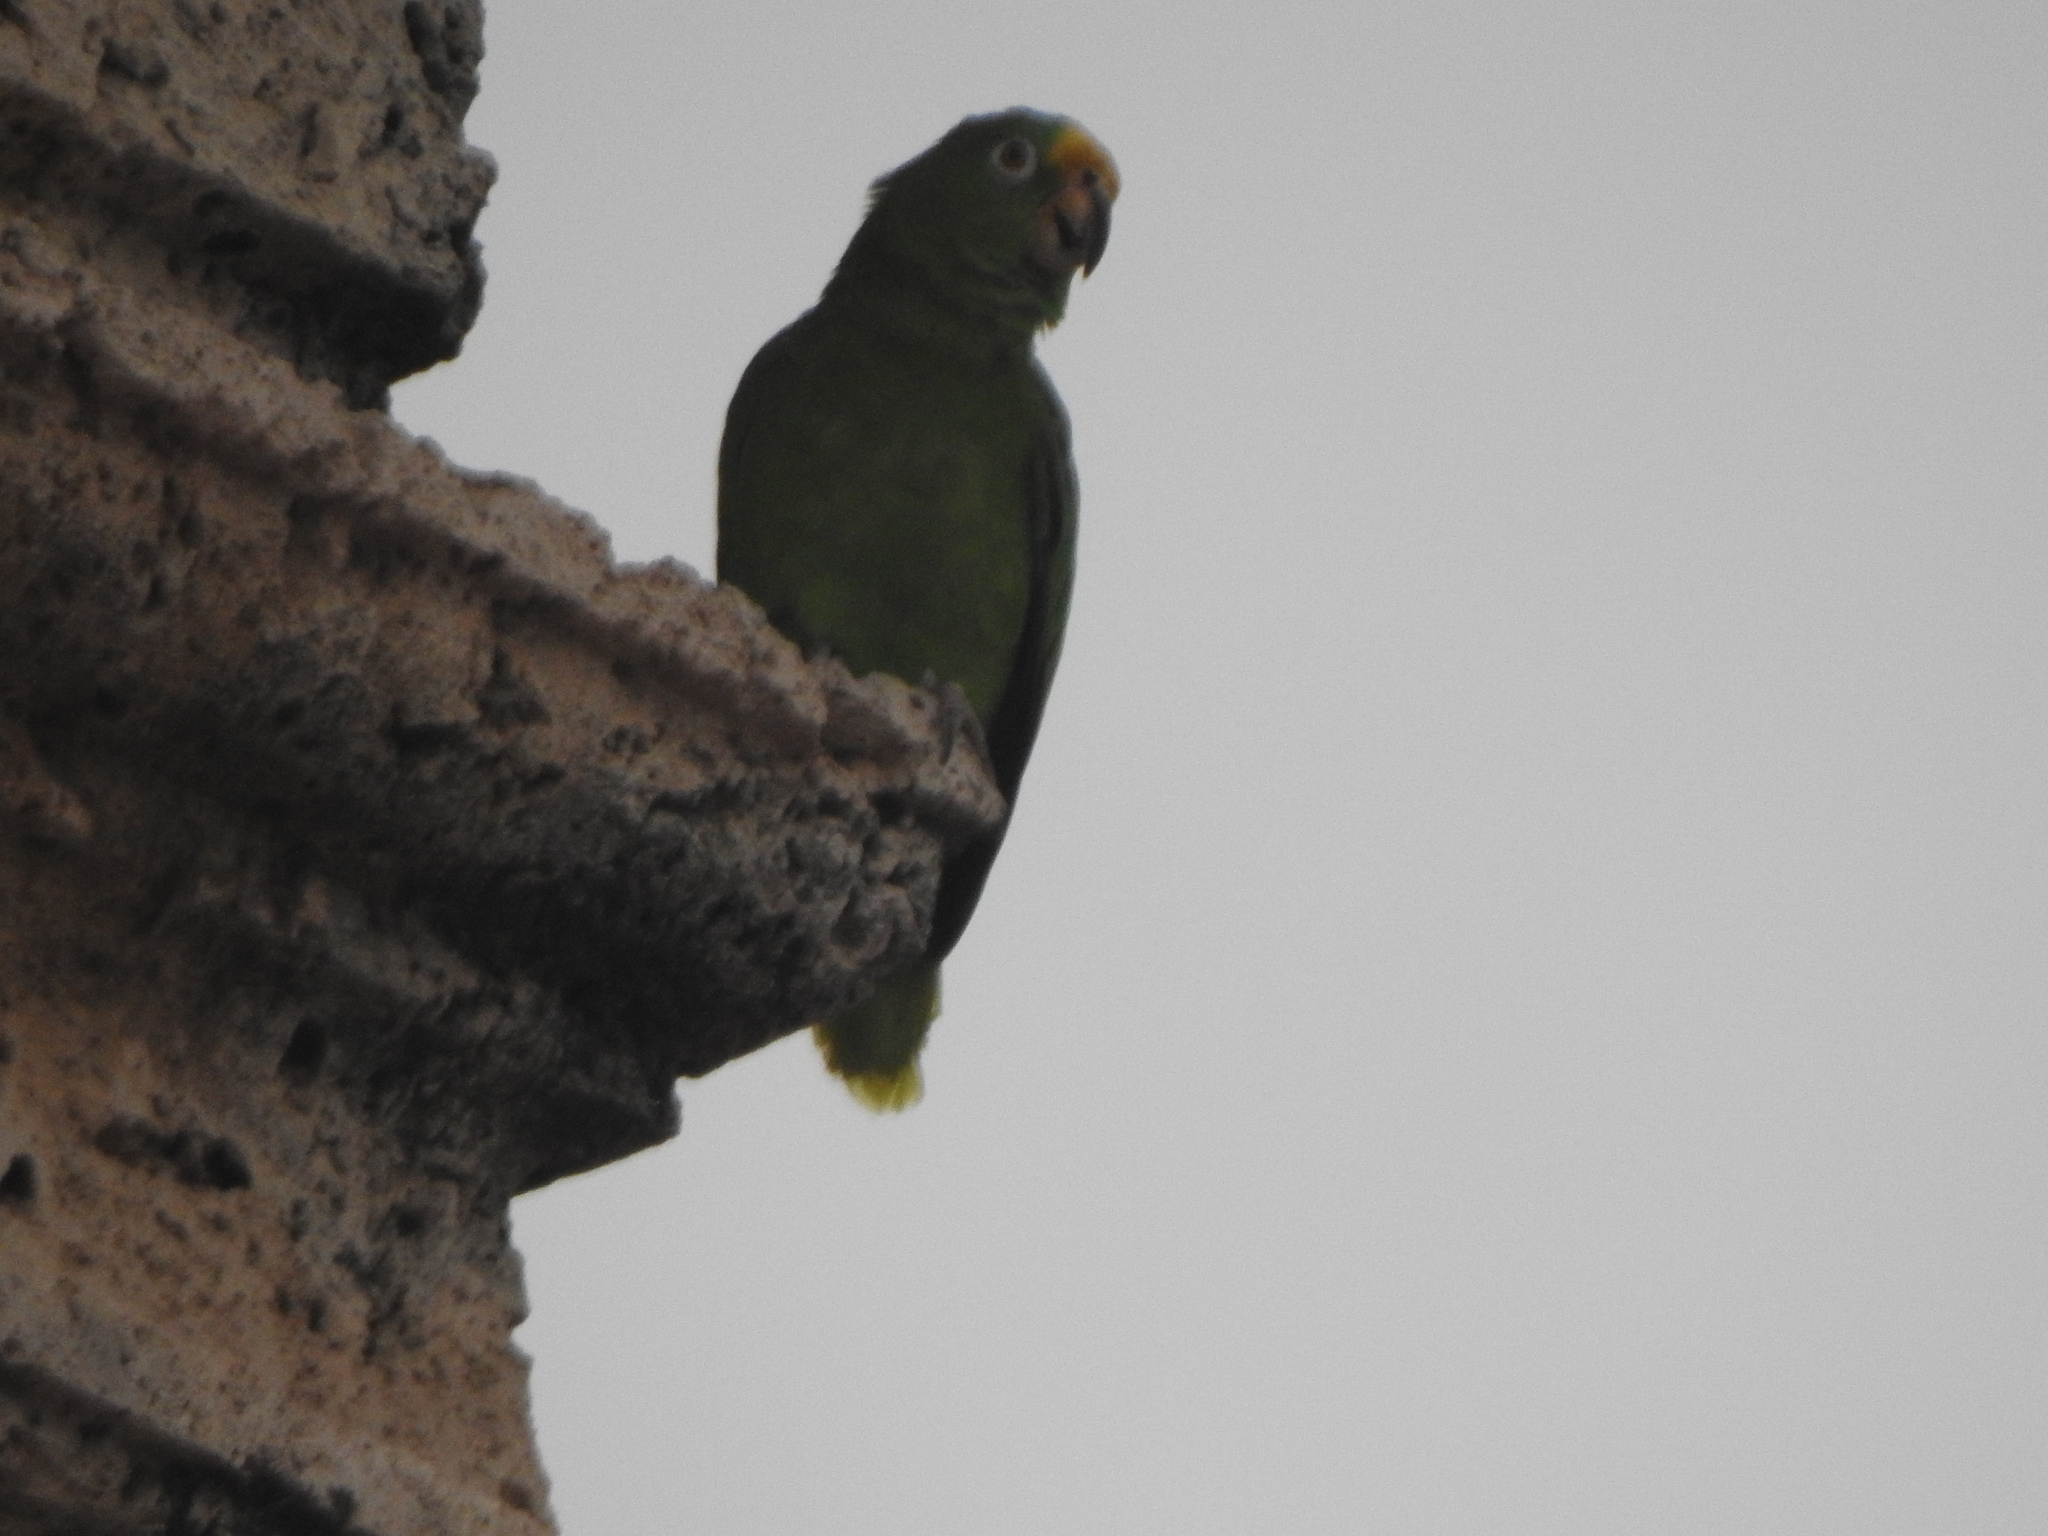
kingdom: Animalia
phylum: Chordata
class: Aves
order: Psittaciformes
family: Psittacidae
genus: Amazona
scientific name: Amazona ochrocephala
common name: Yellow-crowned amazon
